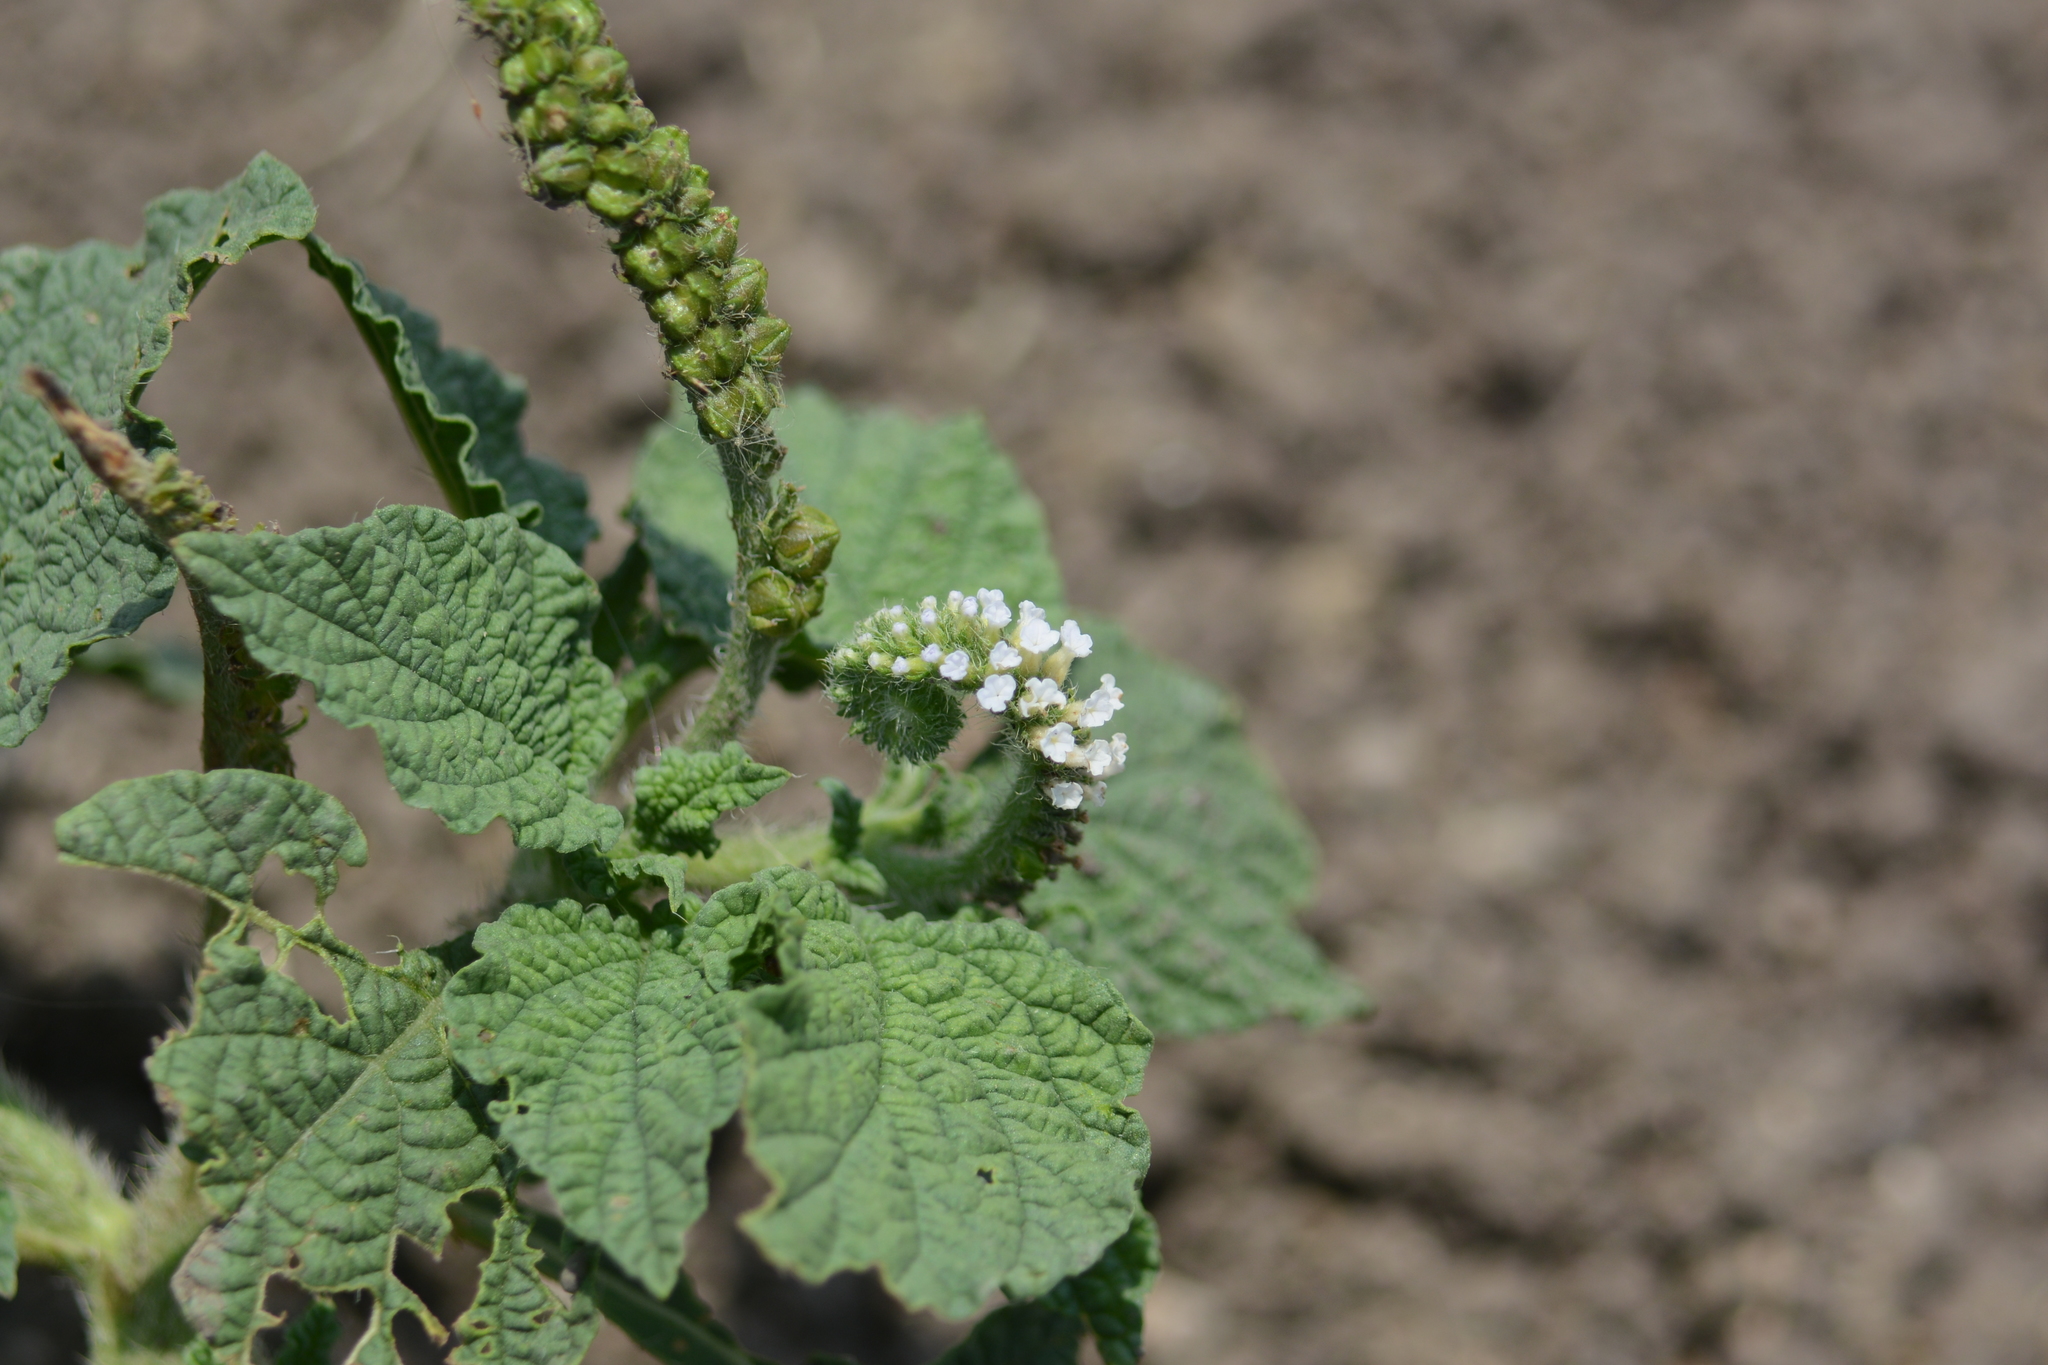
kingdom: Plantae
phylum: Tracheophyta
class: Magnoliopsida
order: Boraginales
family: Heliotropiaceae
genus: Heliotropium
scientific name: Heliotropium indicum
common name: Indian heliotrope
